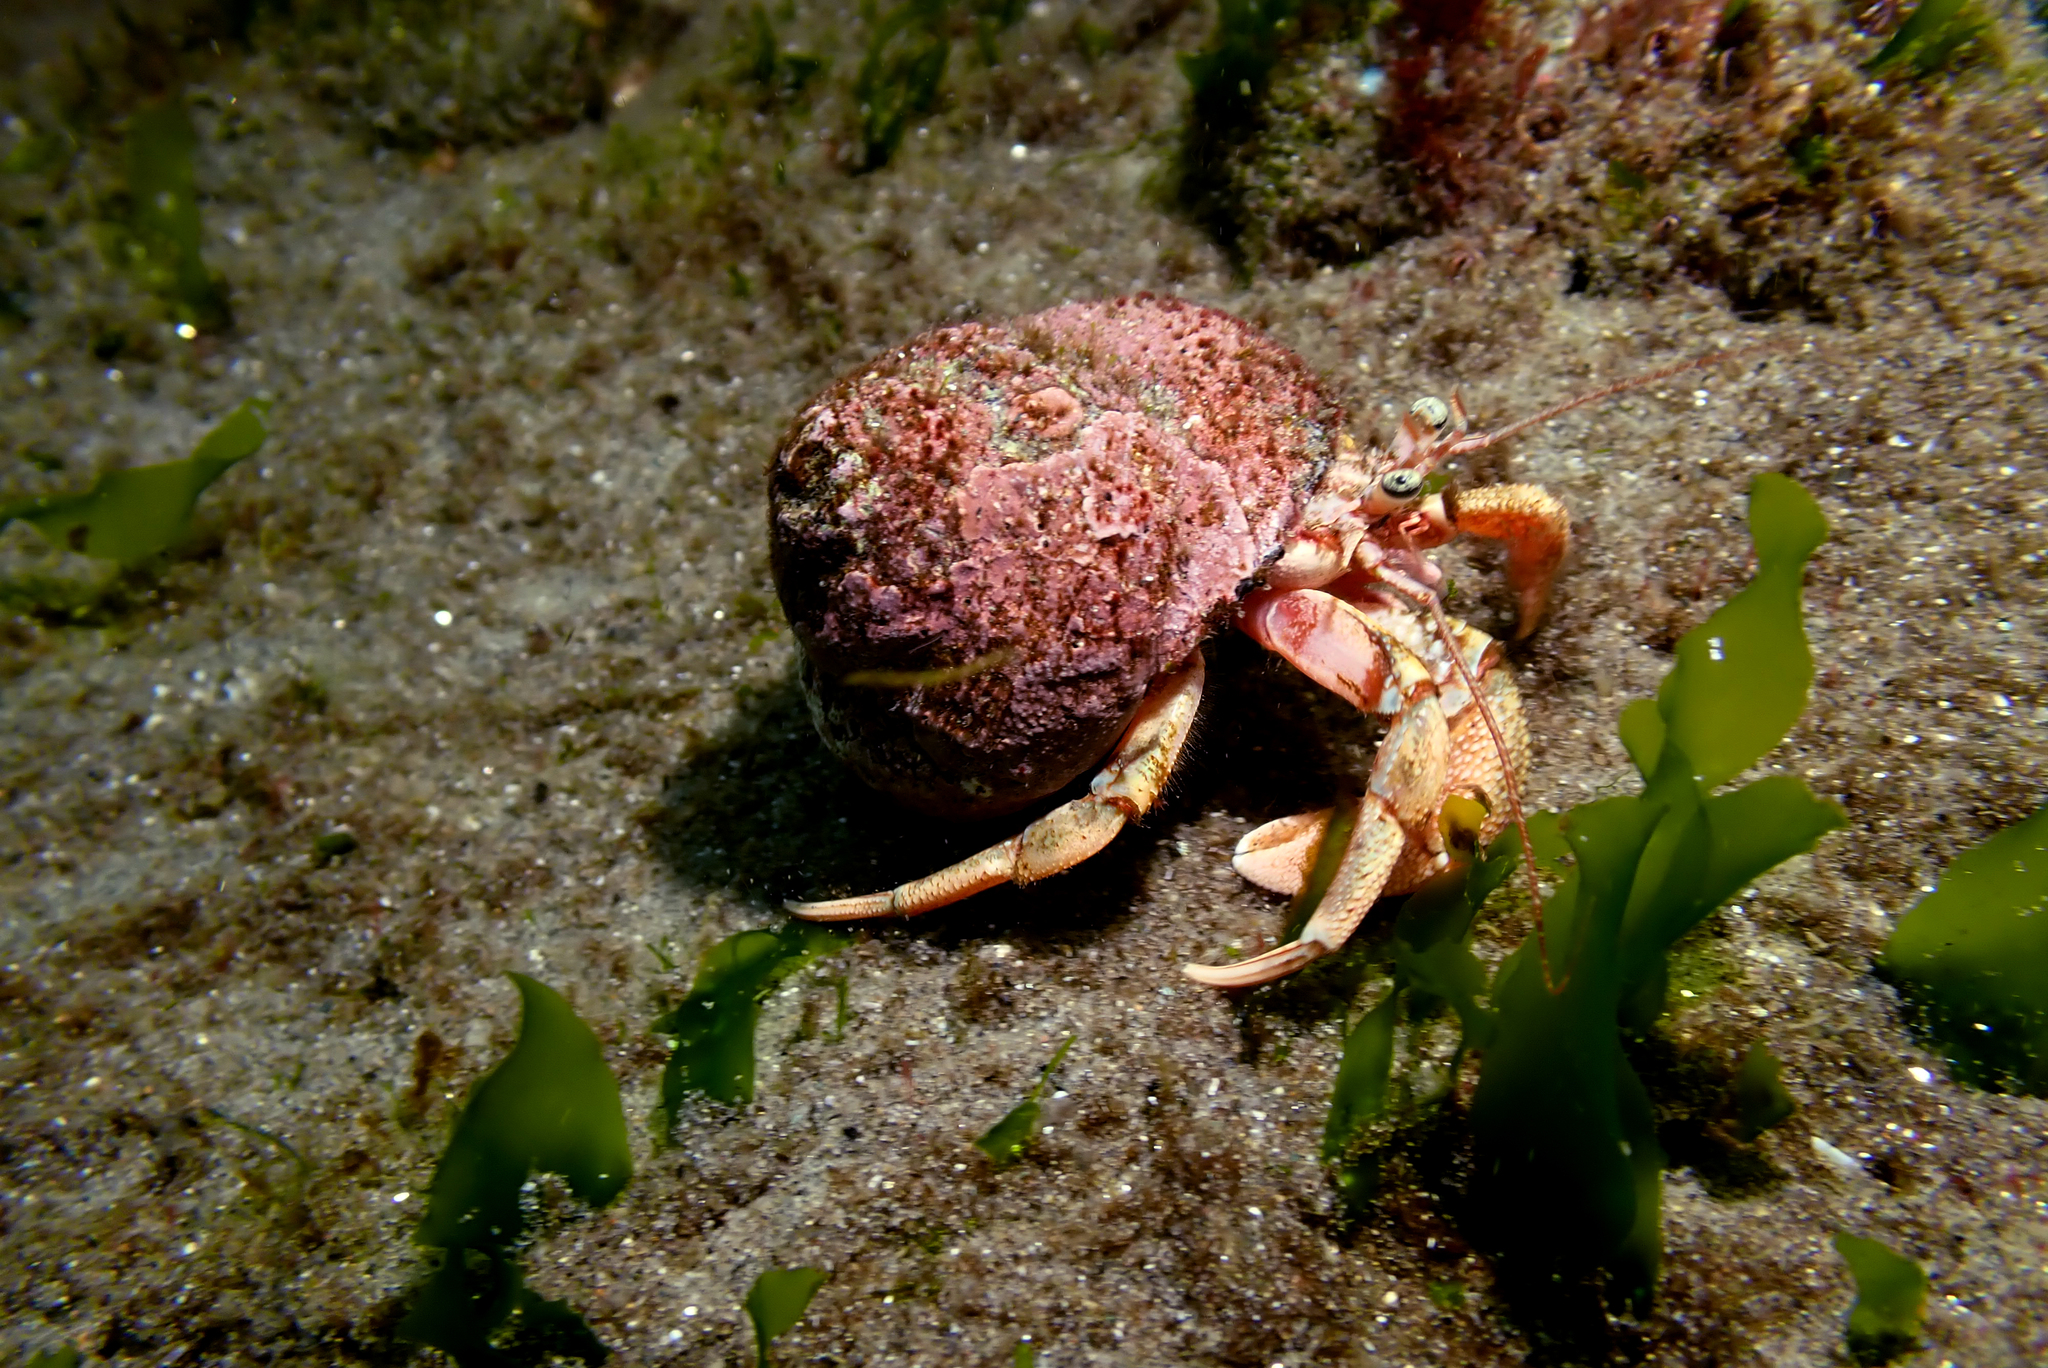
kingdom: Animalia
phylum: Arthropoda
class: Malacostraca
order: Decapoda
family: Paguridae
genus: Pagurus
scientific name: Pagurus perlatus
